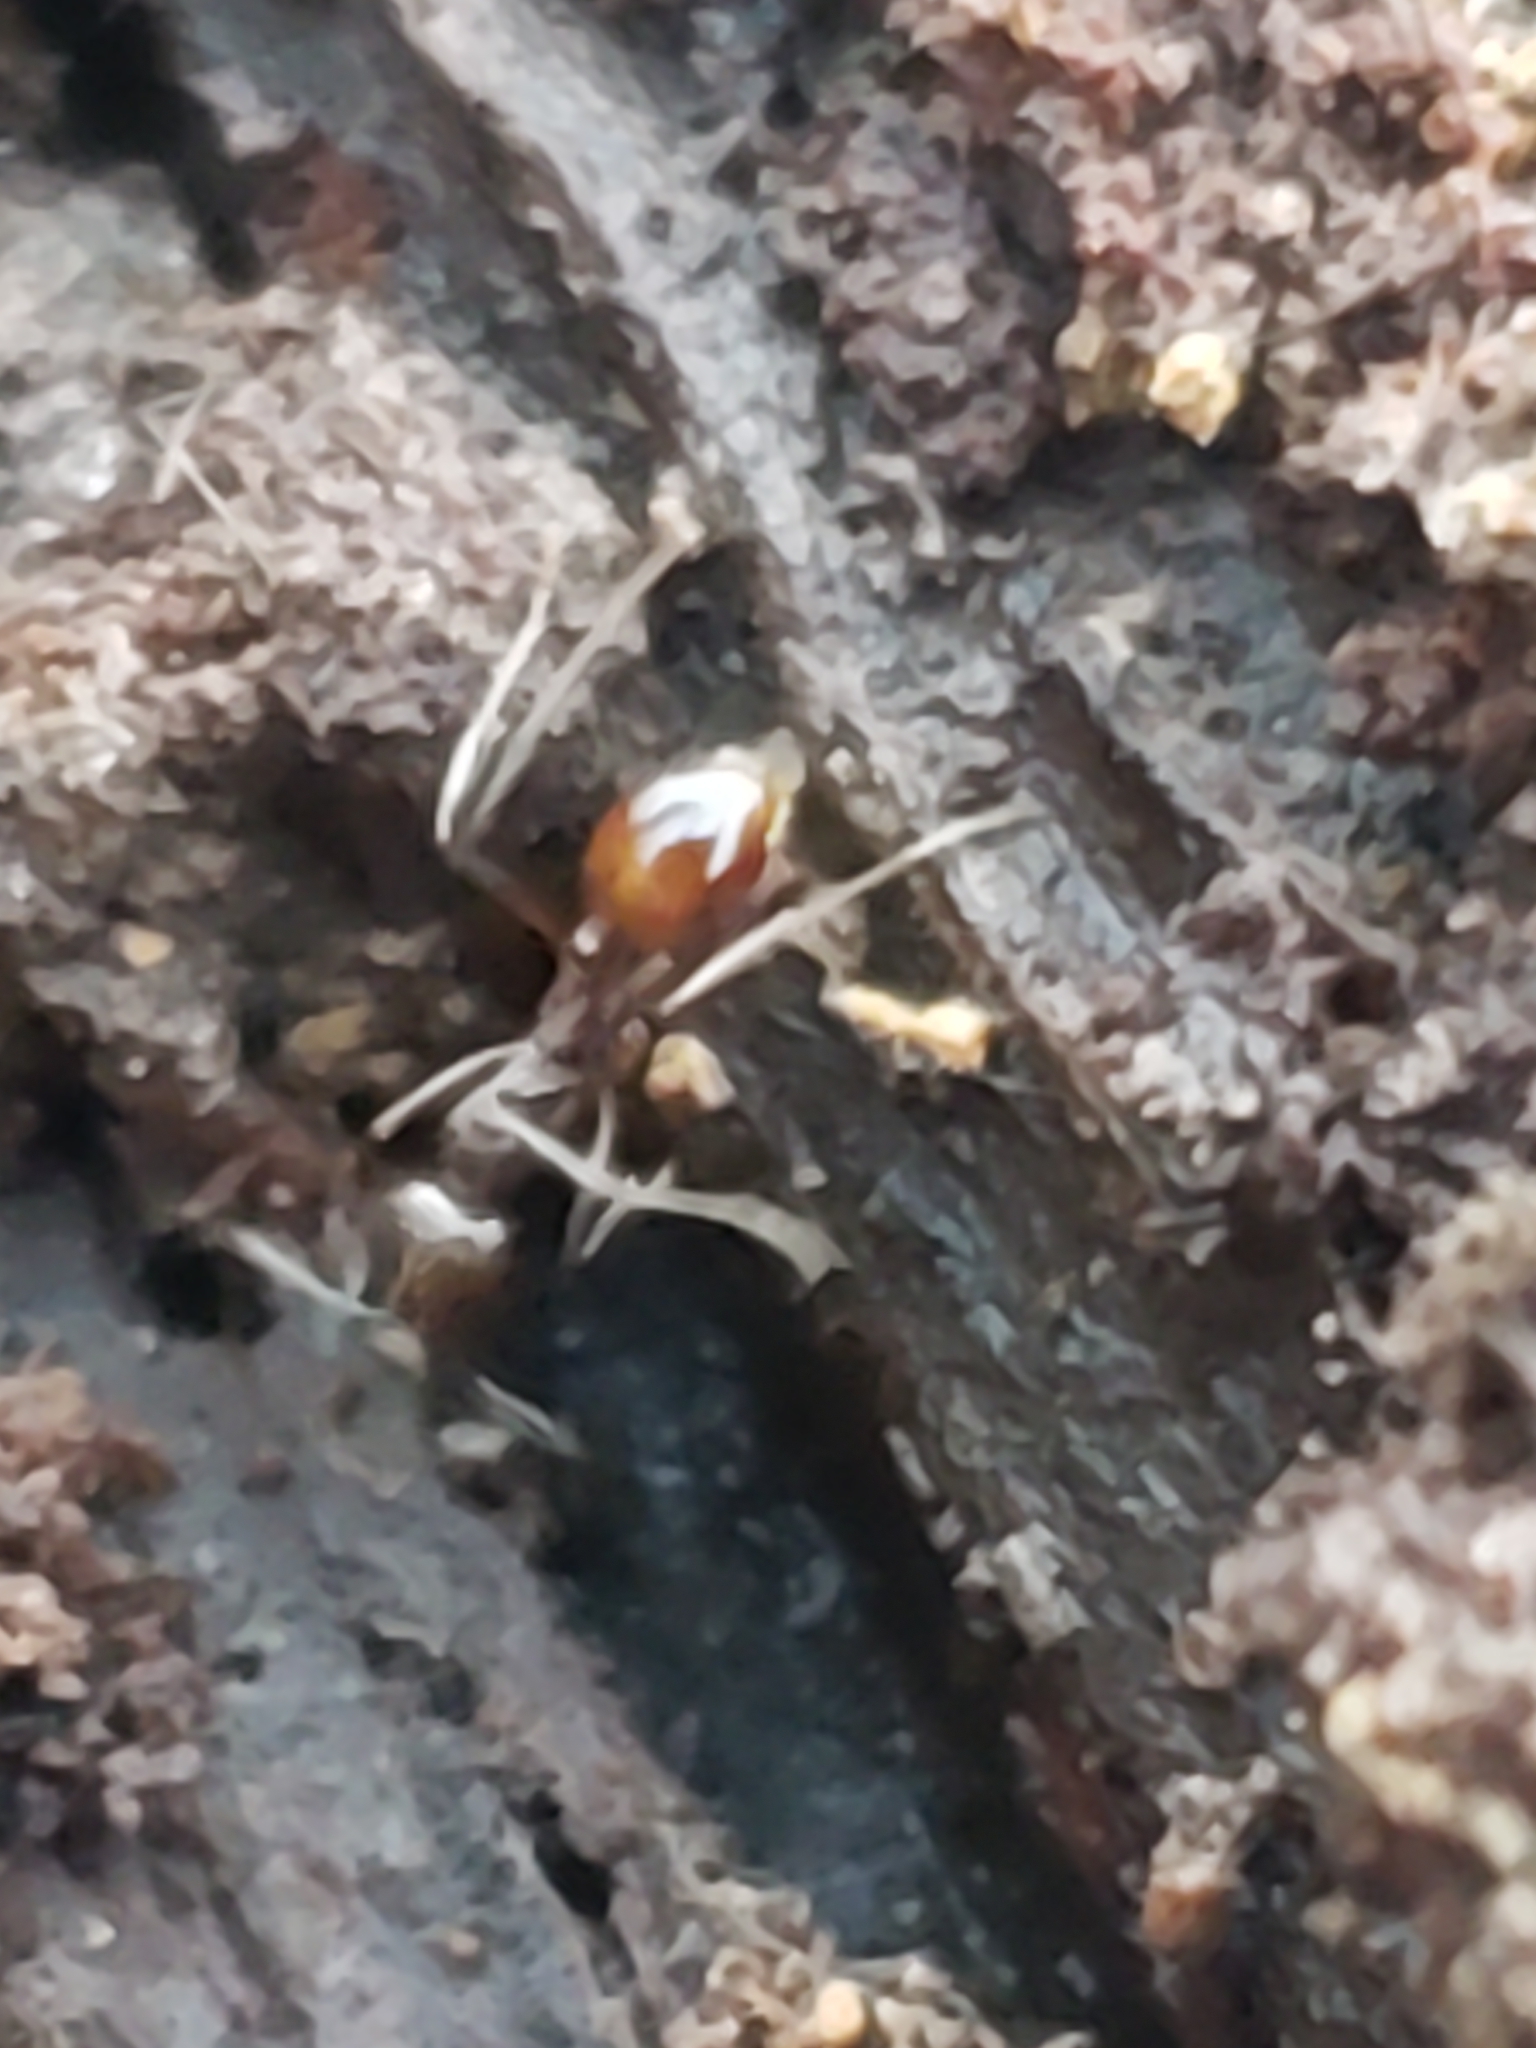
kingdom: Animalia
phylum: Arthropoda
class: Insecta
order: Hymenoptera
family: Formicidae
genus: Aphaenogaster
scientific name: Aphaenogaster fulva
